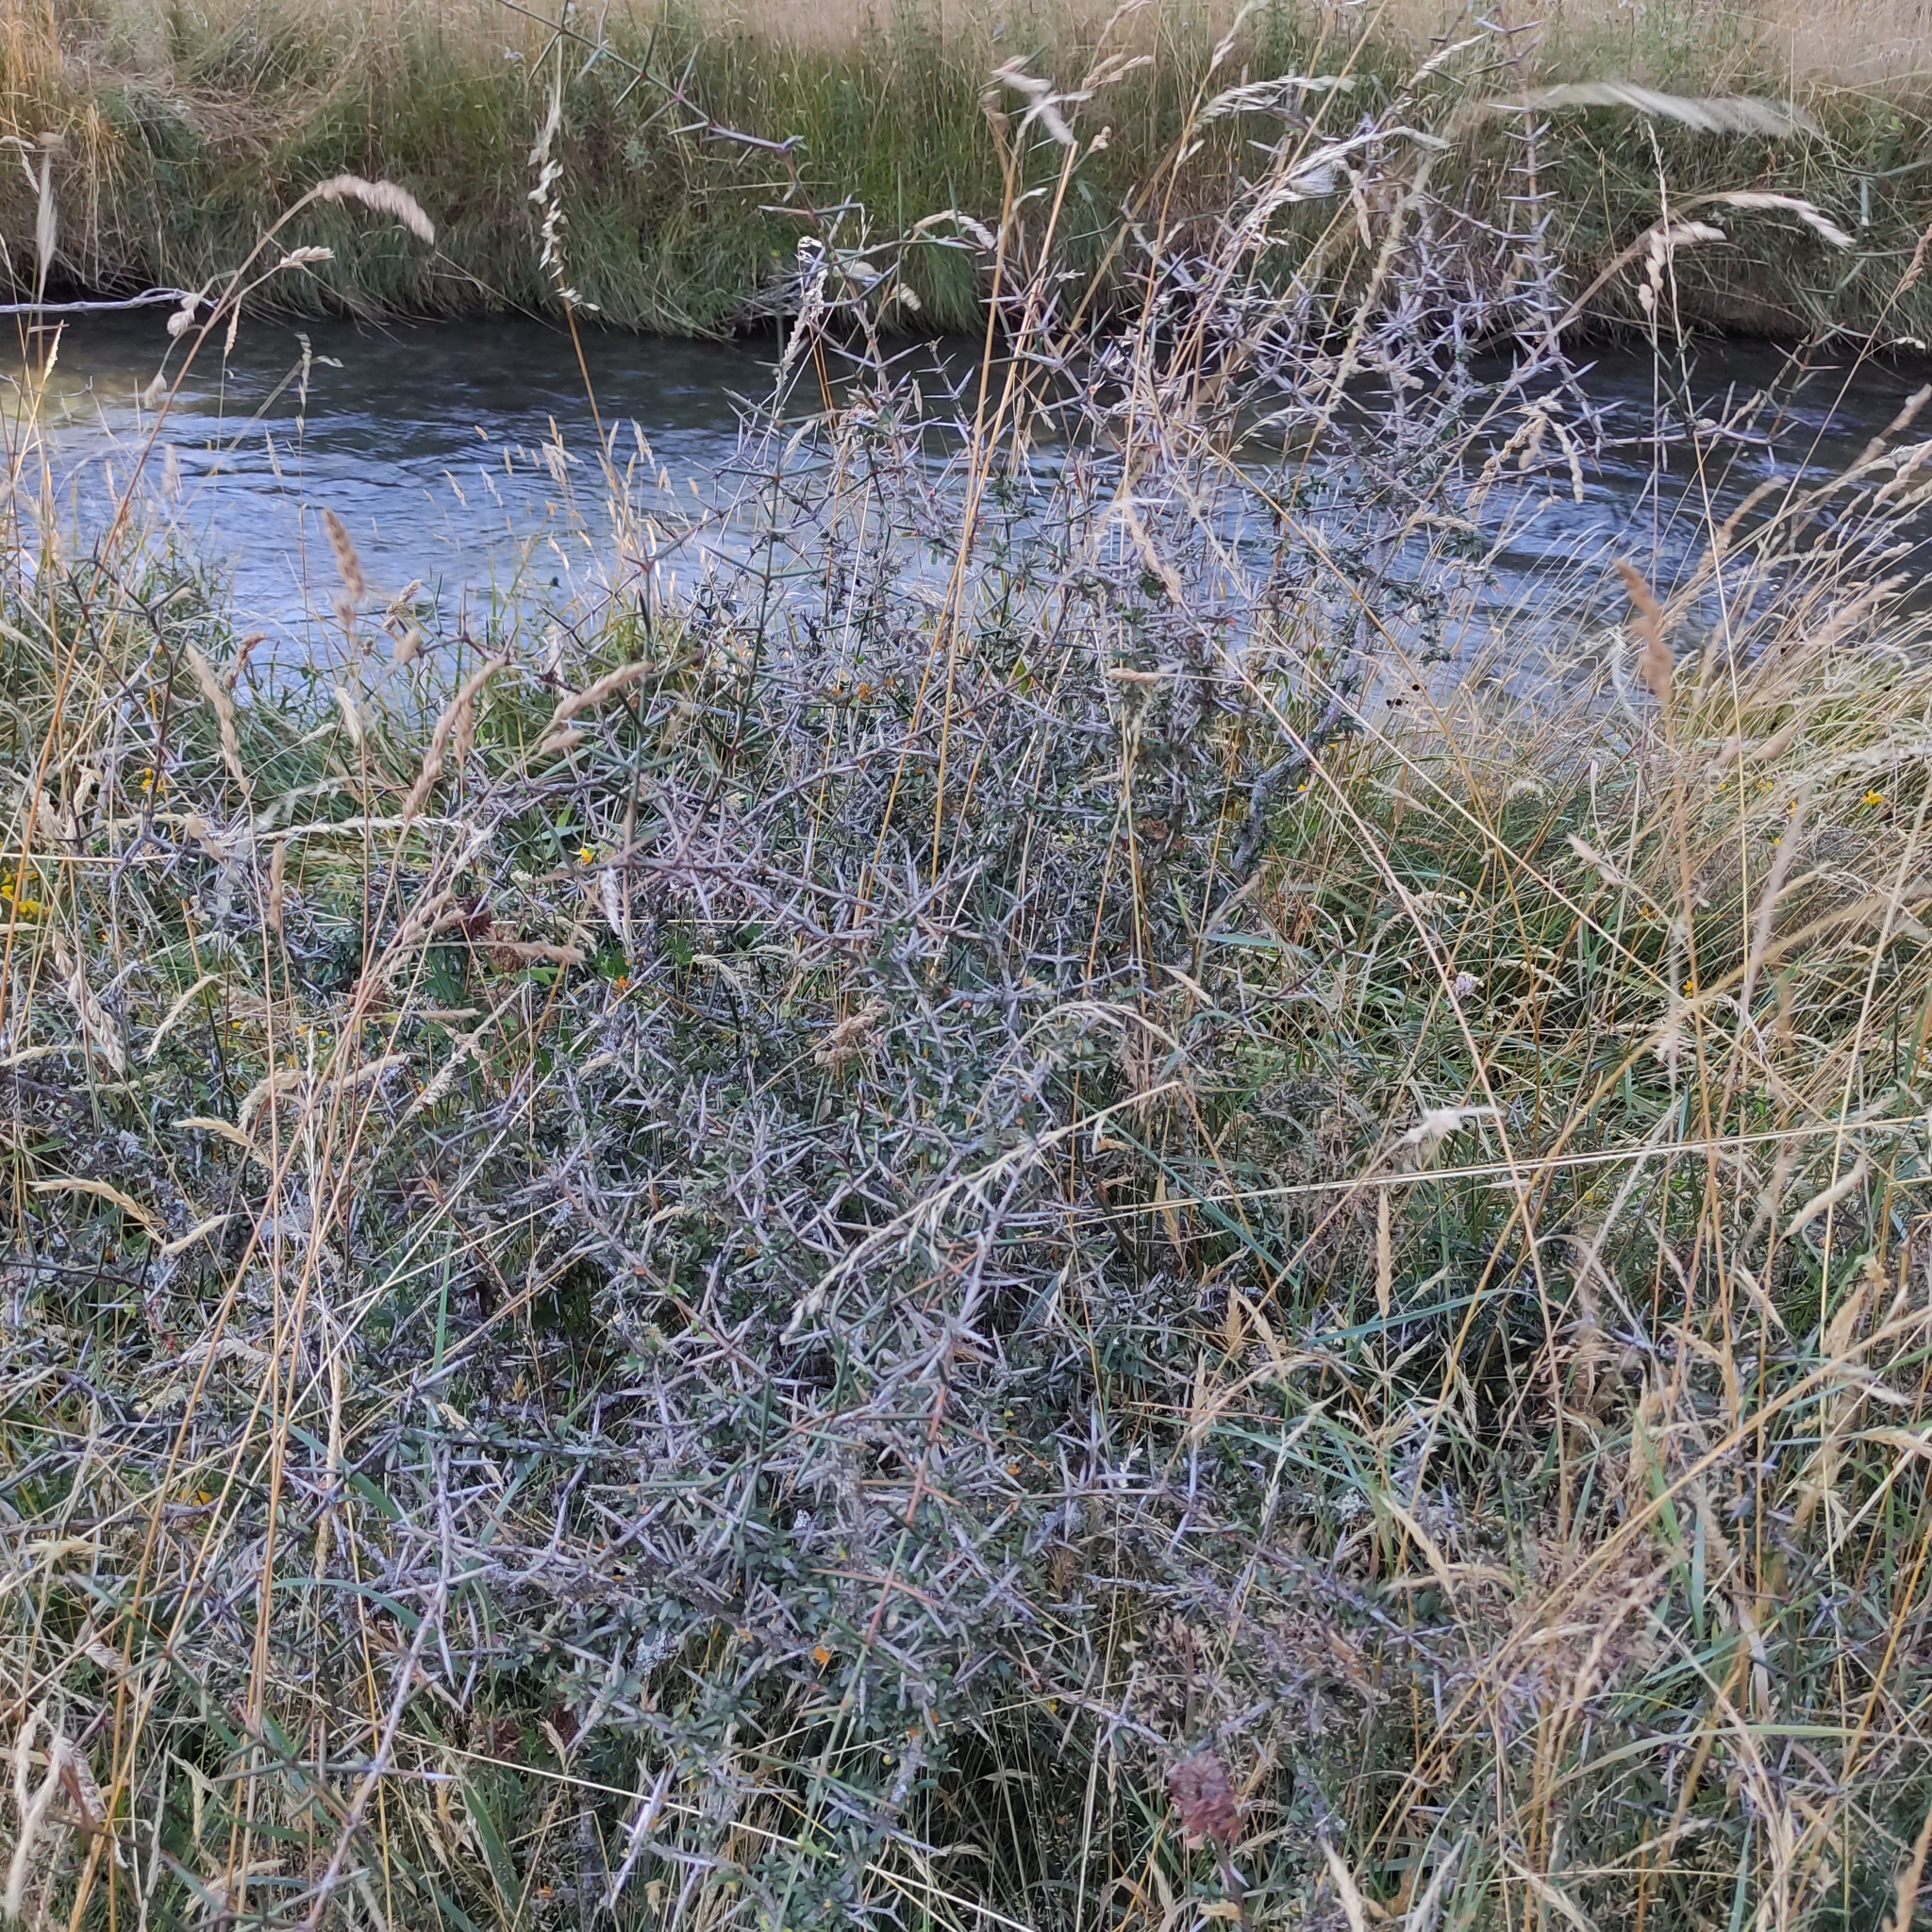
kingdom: Plantae
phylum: Tracheophyta
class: Magnoliopsida
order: Rosales
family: Rhamnaceae
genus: Discaria
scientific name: Discaria toumatou
